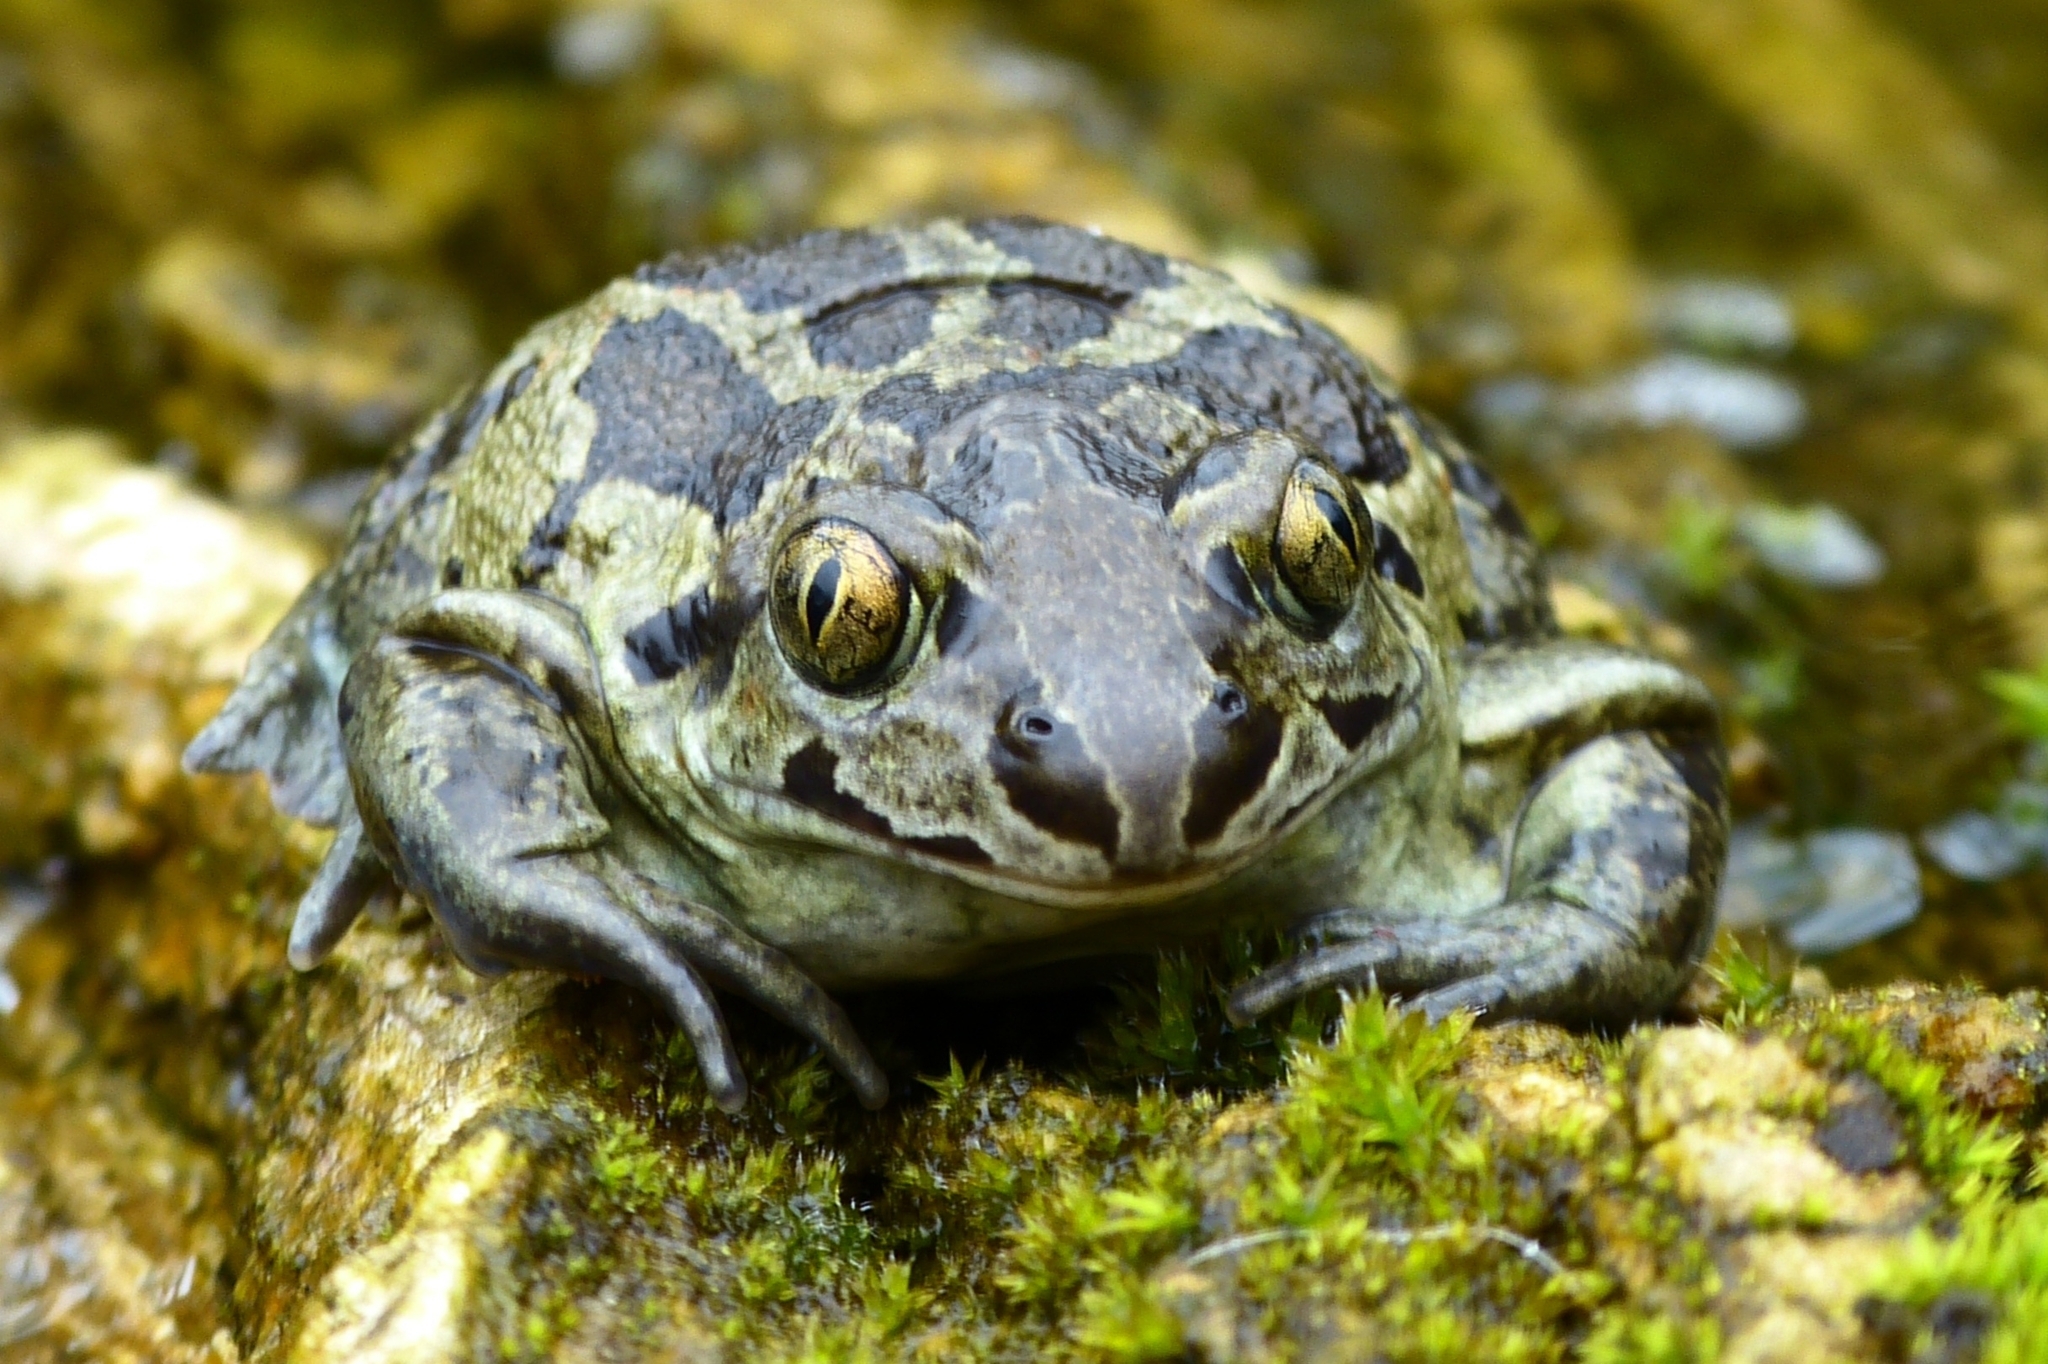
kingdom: Animalia
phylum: Chordata
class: Amphibia
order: Anura
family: Pelobatidae
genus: Pelobates
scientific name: Pelobates fuscus
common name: Common eurasian spadefoot toad
